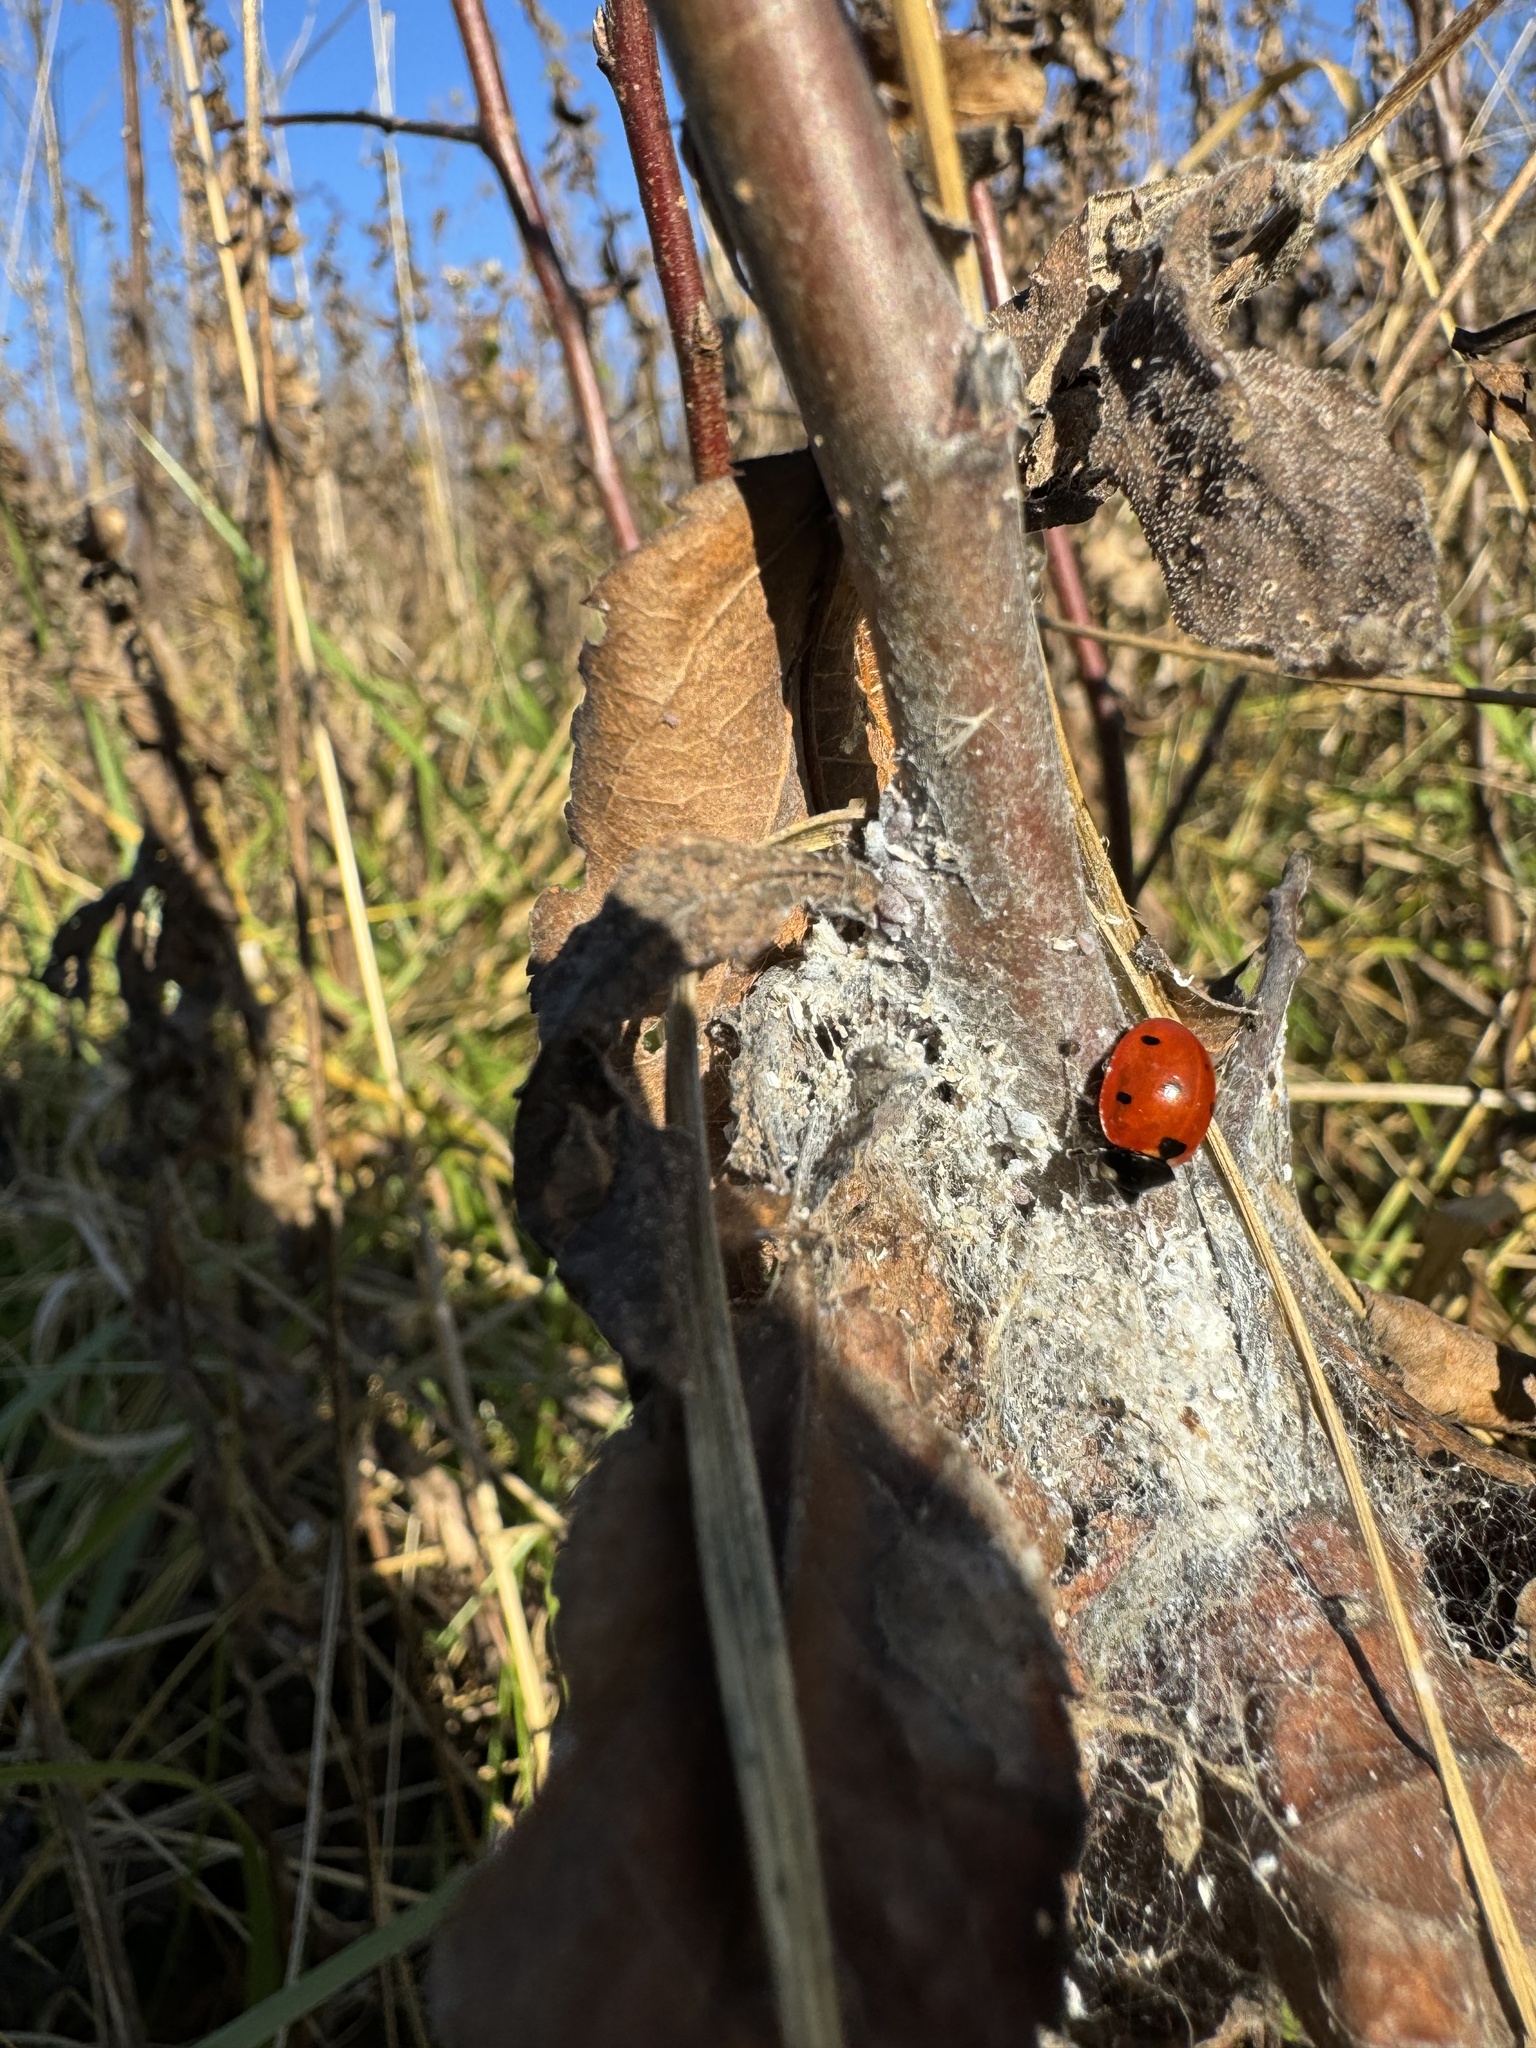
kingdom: Animalia
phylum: Arthropoda
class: Insecta
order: Coleoptera
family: Coccinellidae
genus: Coccinella
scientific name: Coccinella septempunctata
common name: Sevenspotted lady beetle
